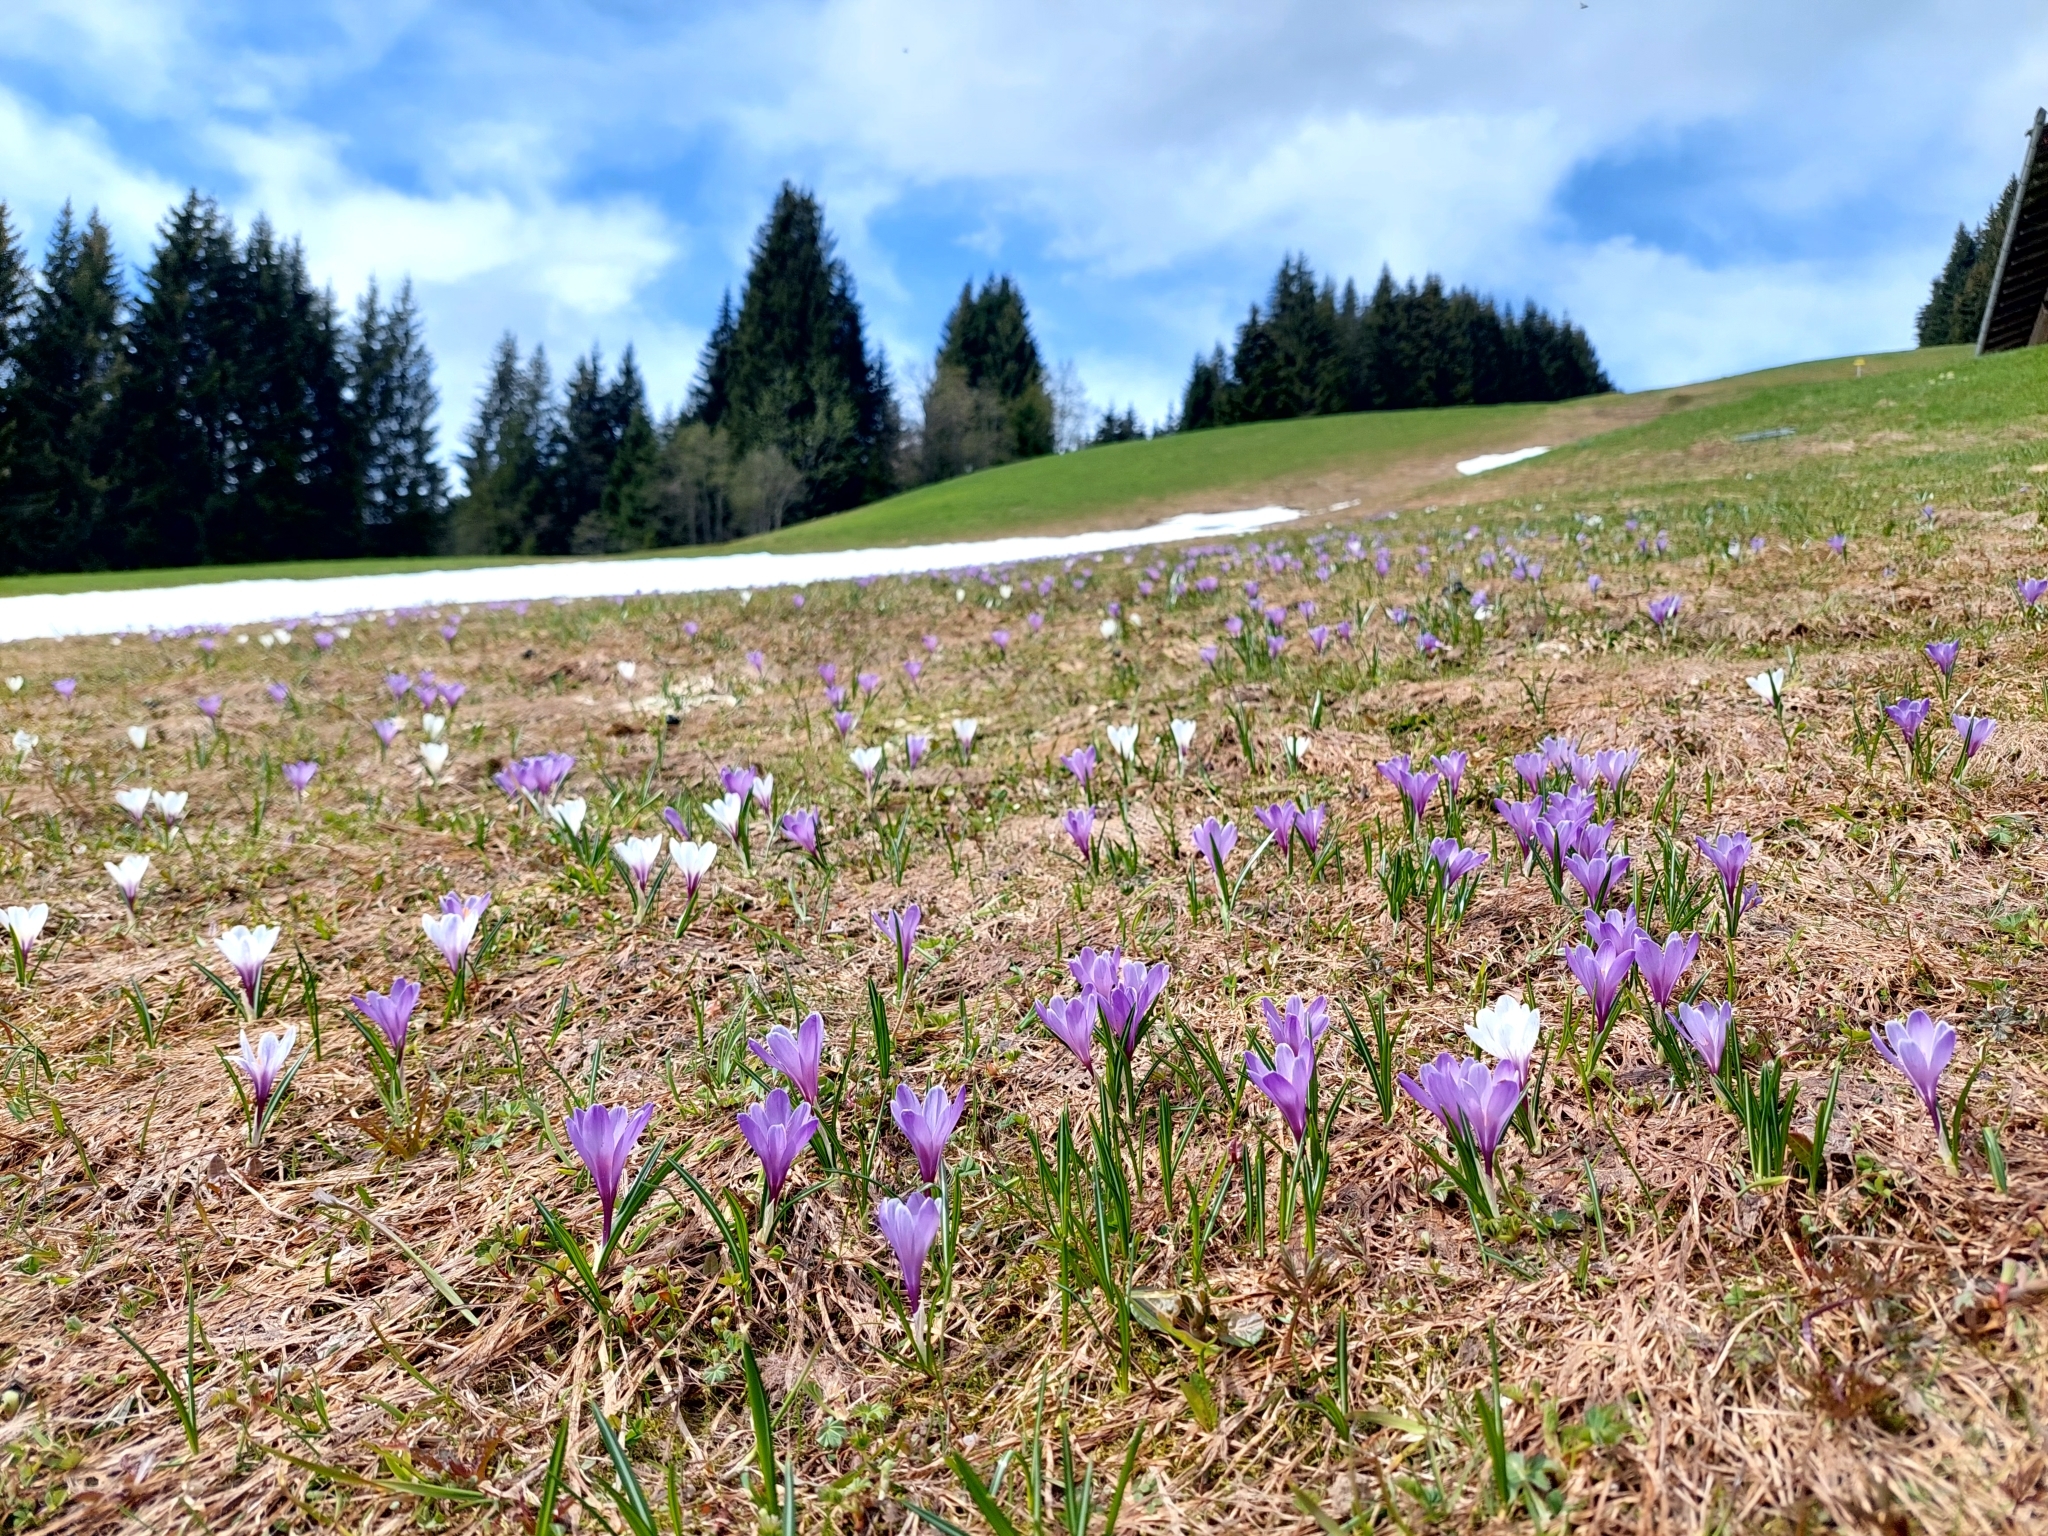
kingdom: Plantae
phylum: Tracheophyta
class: Liliopsida
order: Asparagales
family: Iridaceae
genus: Crocus
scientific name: Crocus vernus
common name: Spring crocus
